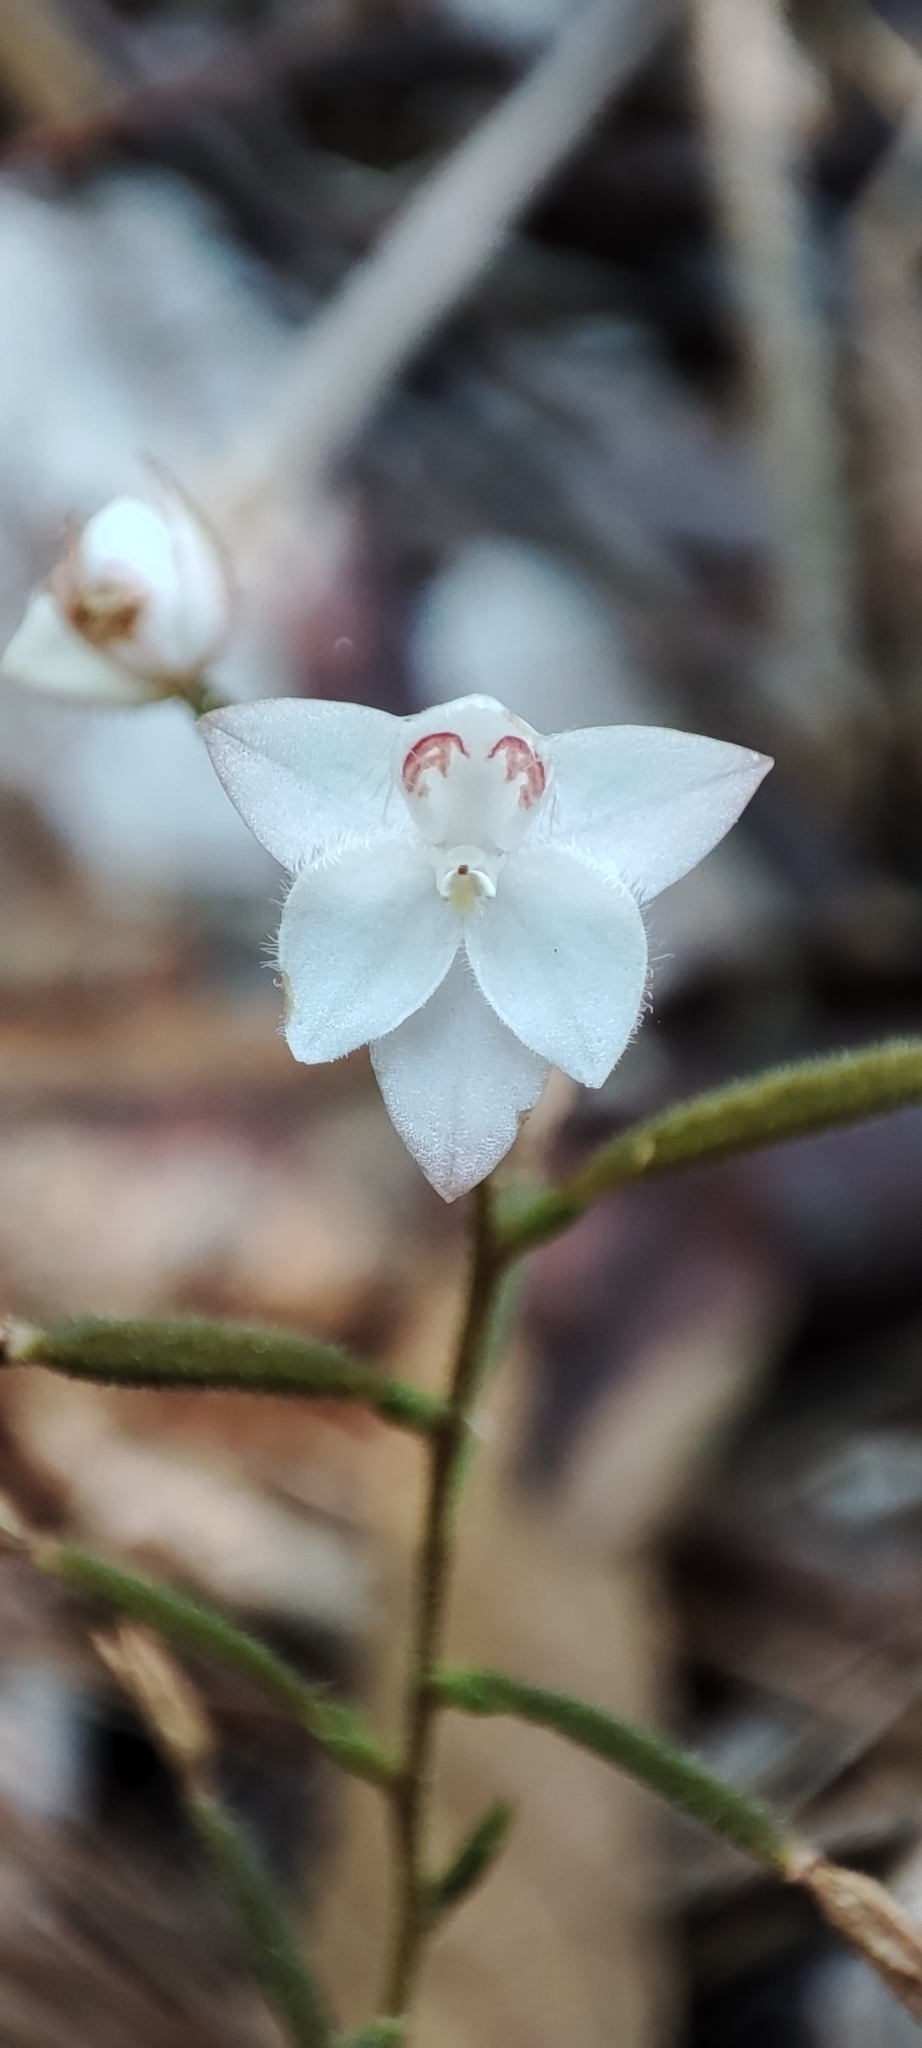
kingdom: Plantae
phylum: Tracheophyta
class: Liliopsida
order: Asparagales
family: Orchidaceae
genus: Cranichis
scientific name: Cranichis ciliilabia
